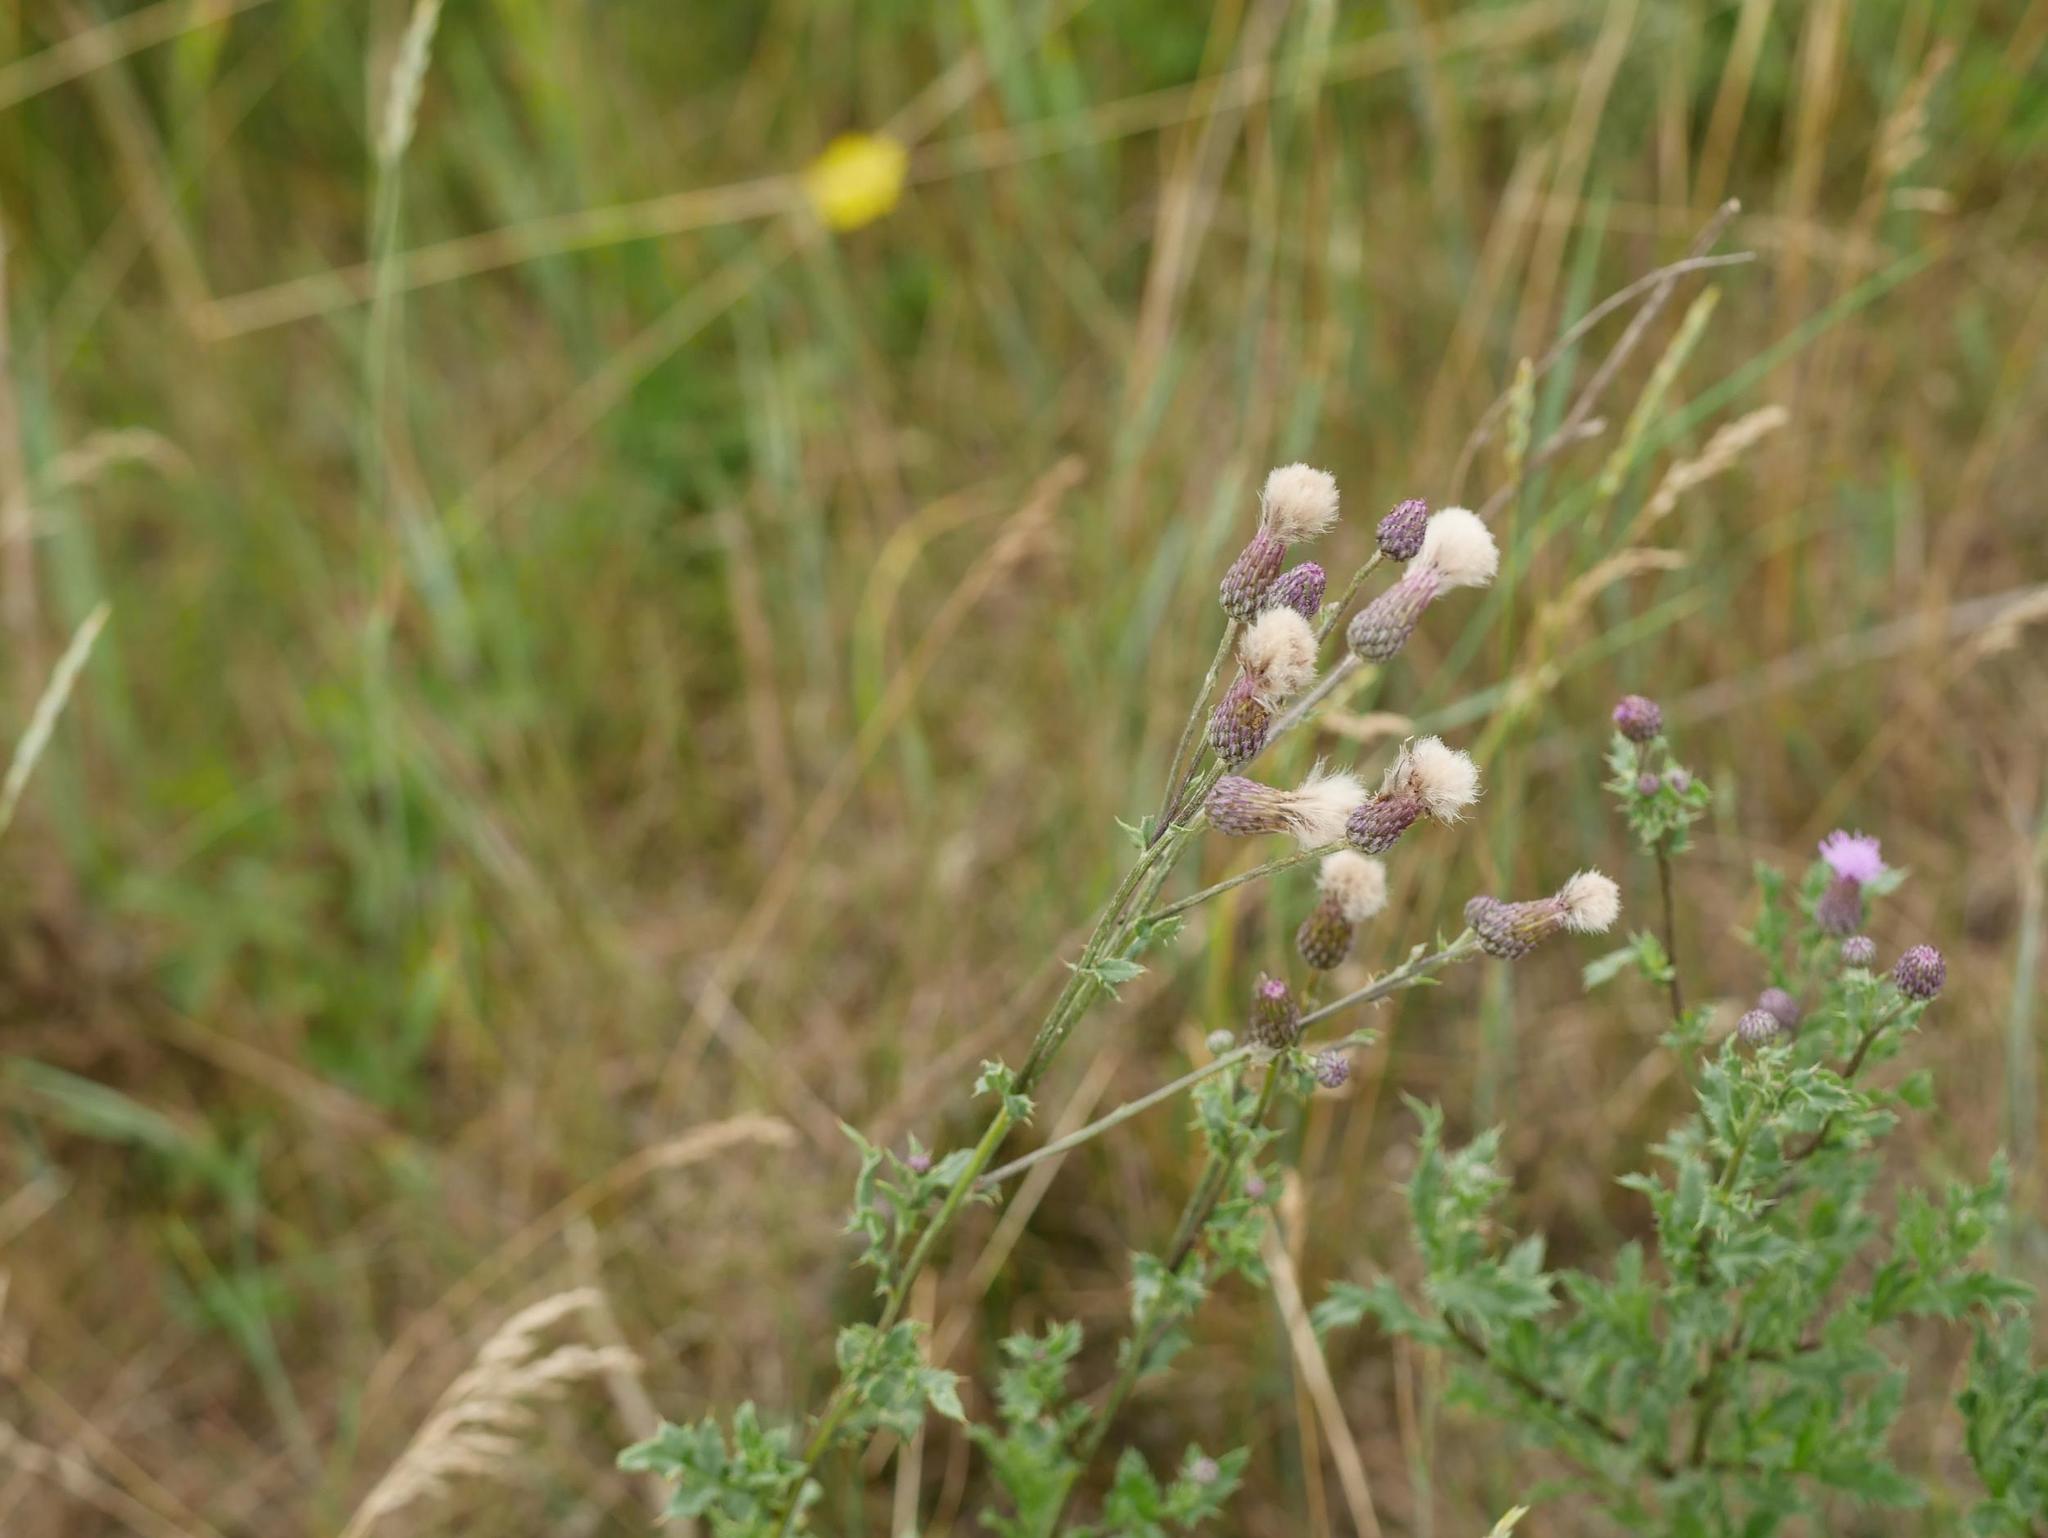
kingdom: Plantae
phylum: Tracheophyta
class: Magnoliopsida
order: Asterales
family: Asteraceae
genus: Cirsium
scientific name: Cirsium arvense
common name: Creeping thistle
